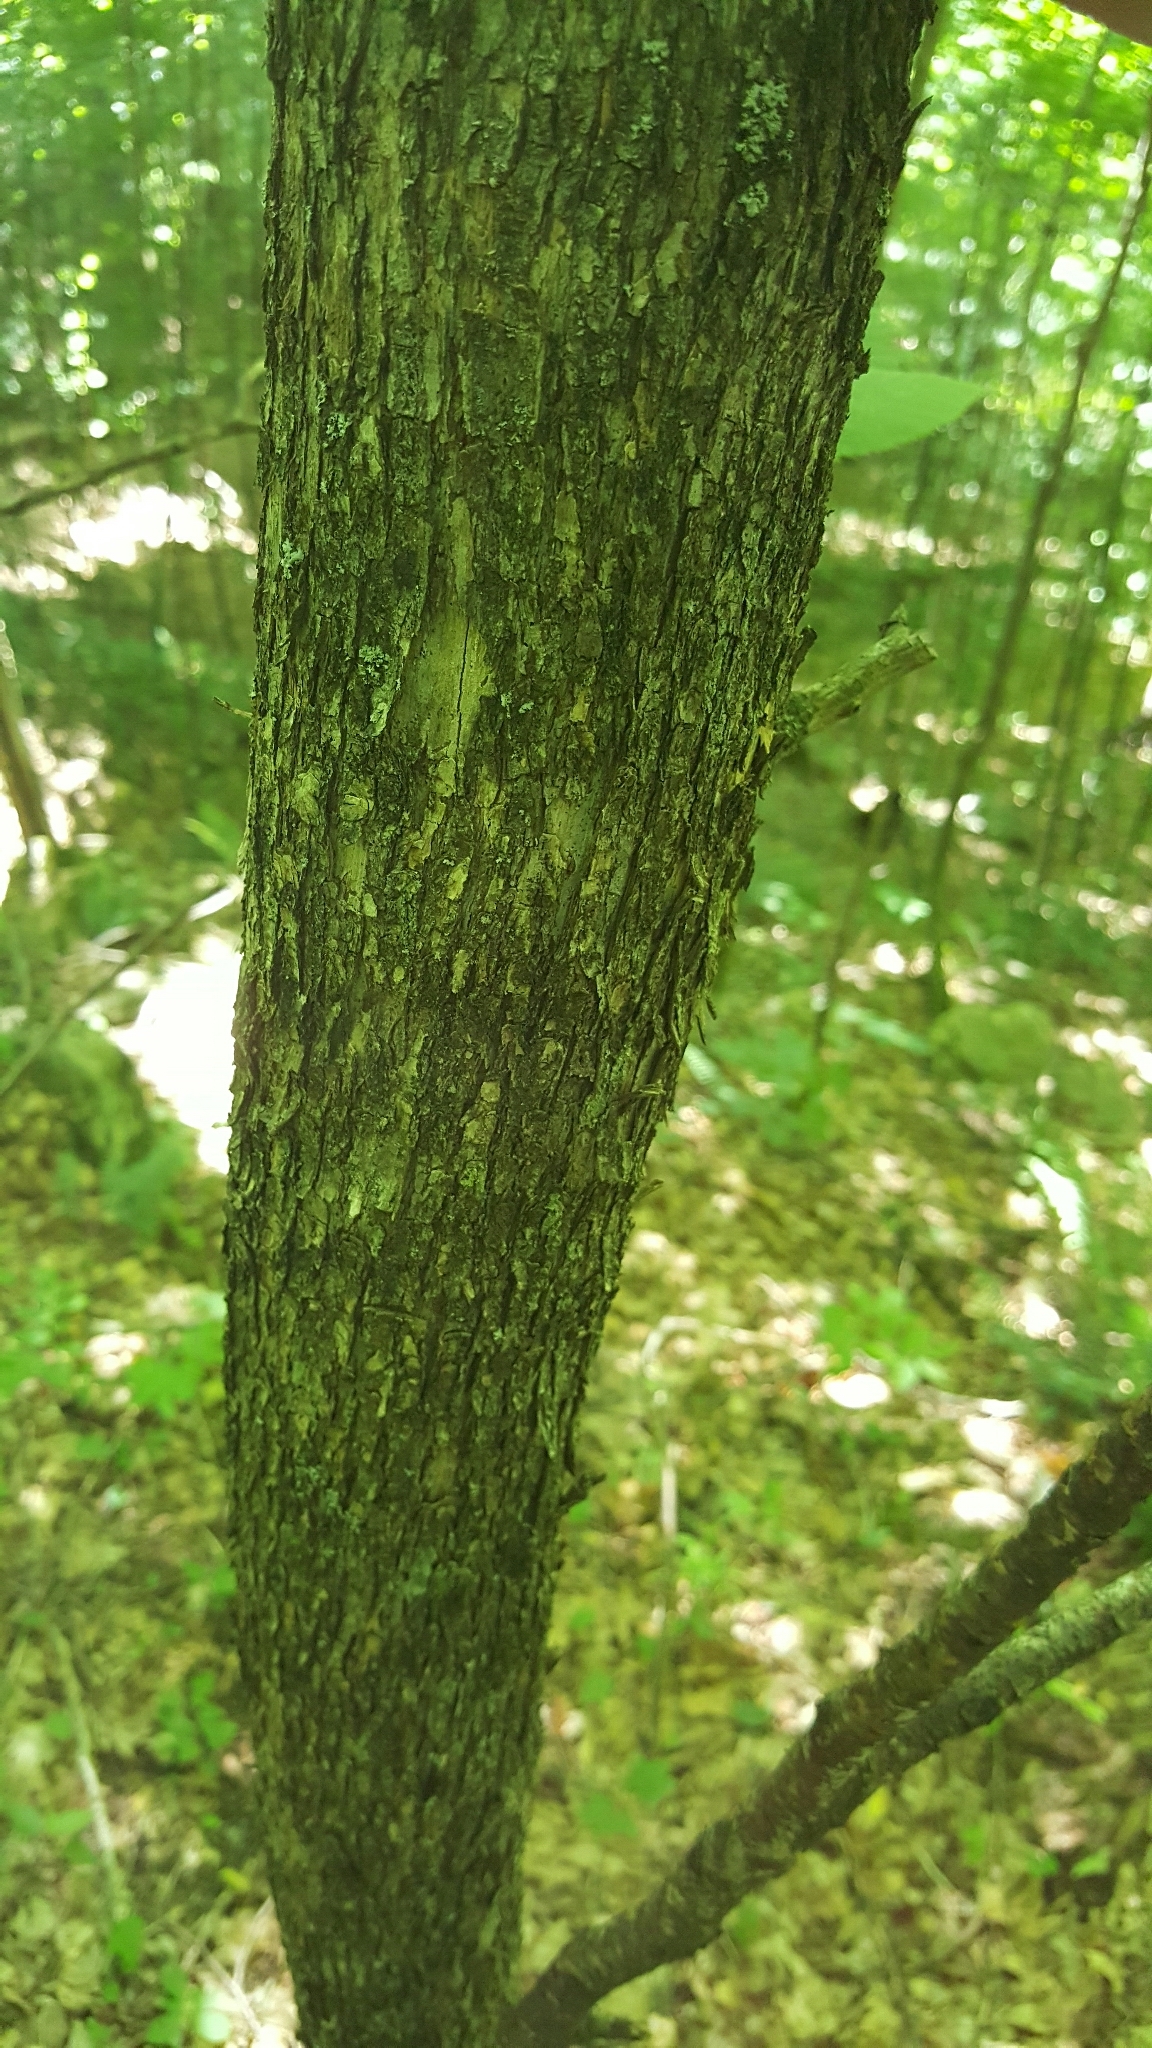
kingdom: Plantae
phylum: Tracheophyta
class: Magnoliopsida
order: Fagales
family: Betulaceae
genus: Ostrya
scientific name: Ostrya virginiana
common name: Ironwood
